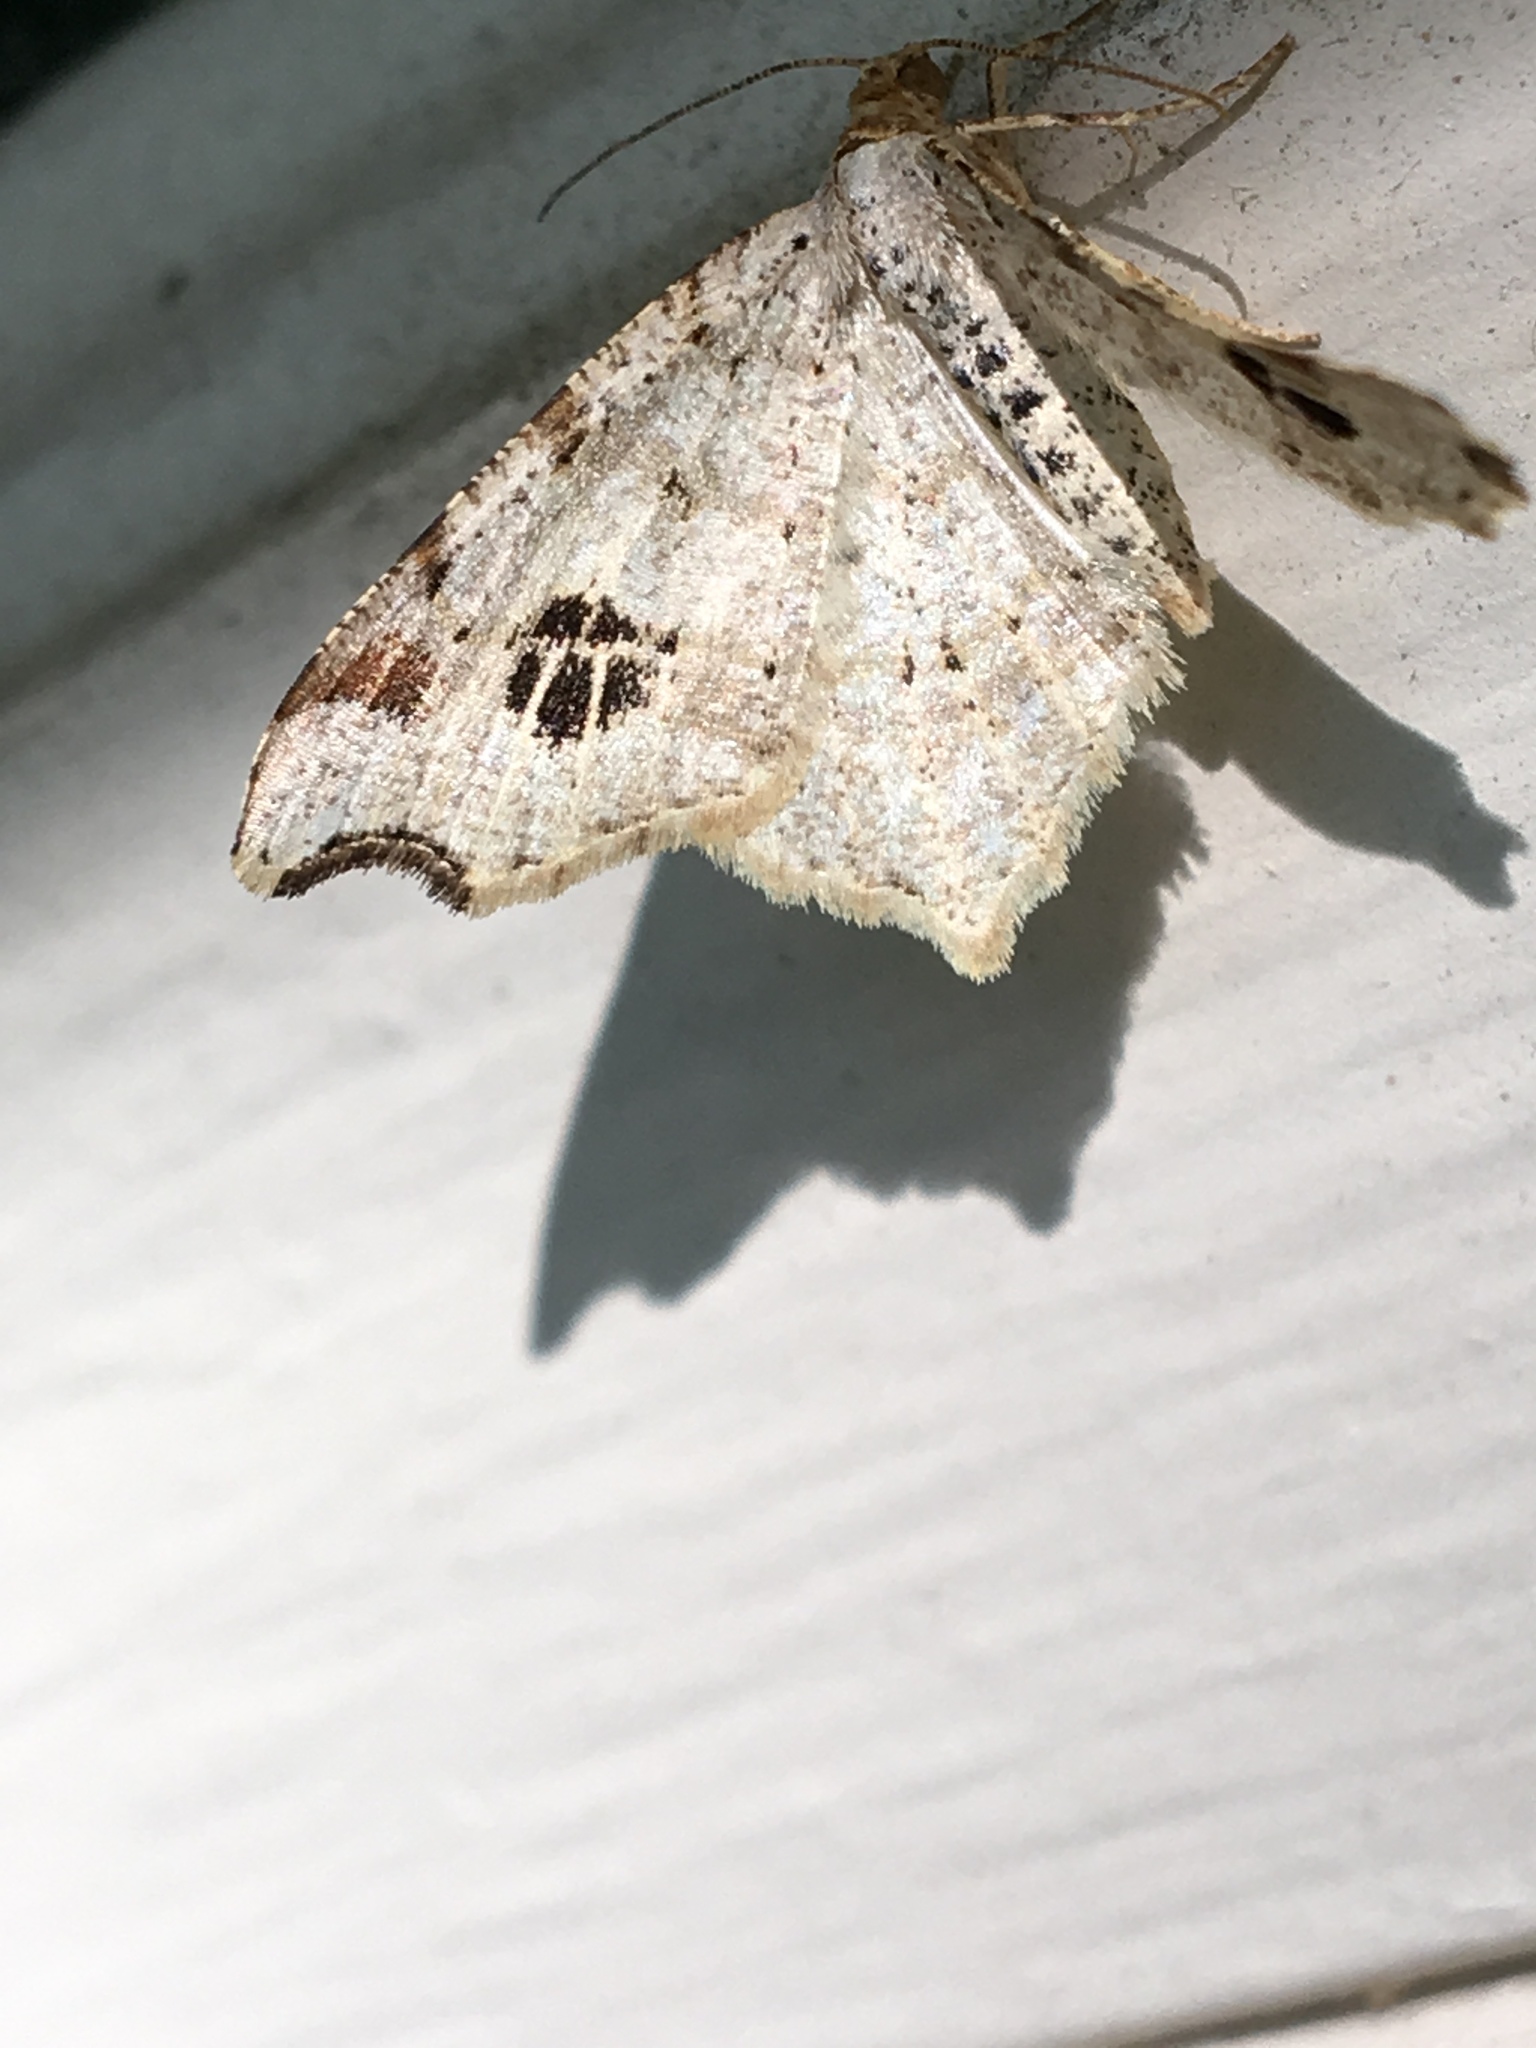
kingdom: Animalia
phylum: Arthropoda
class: Insecta
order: Lepidoptera
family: Geometridae
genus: Macaria
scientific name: Macaria aemulataria
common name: Common angle
